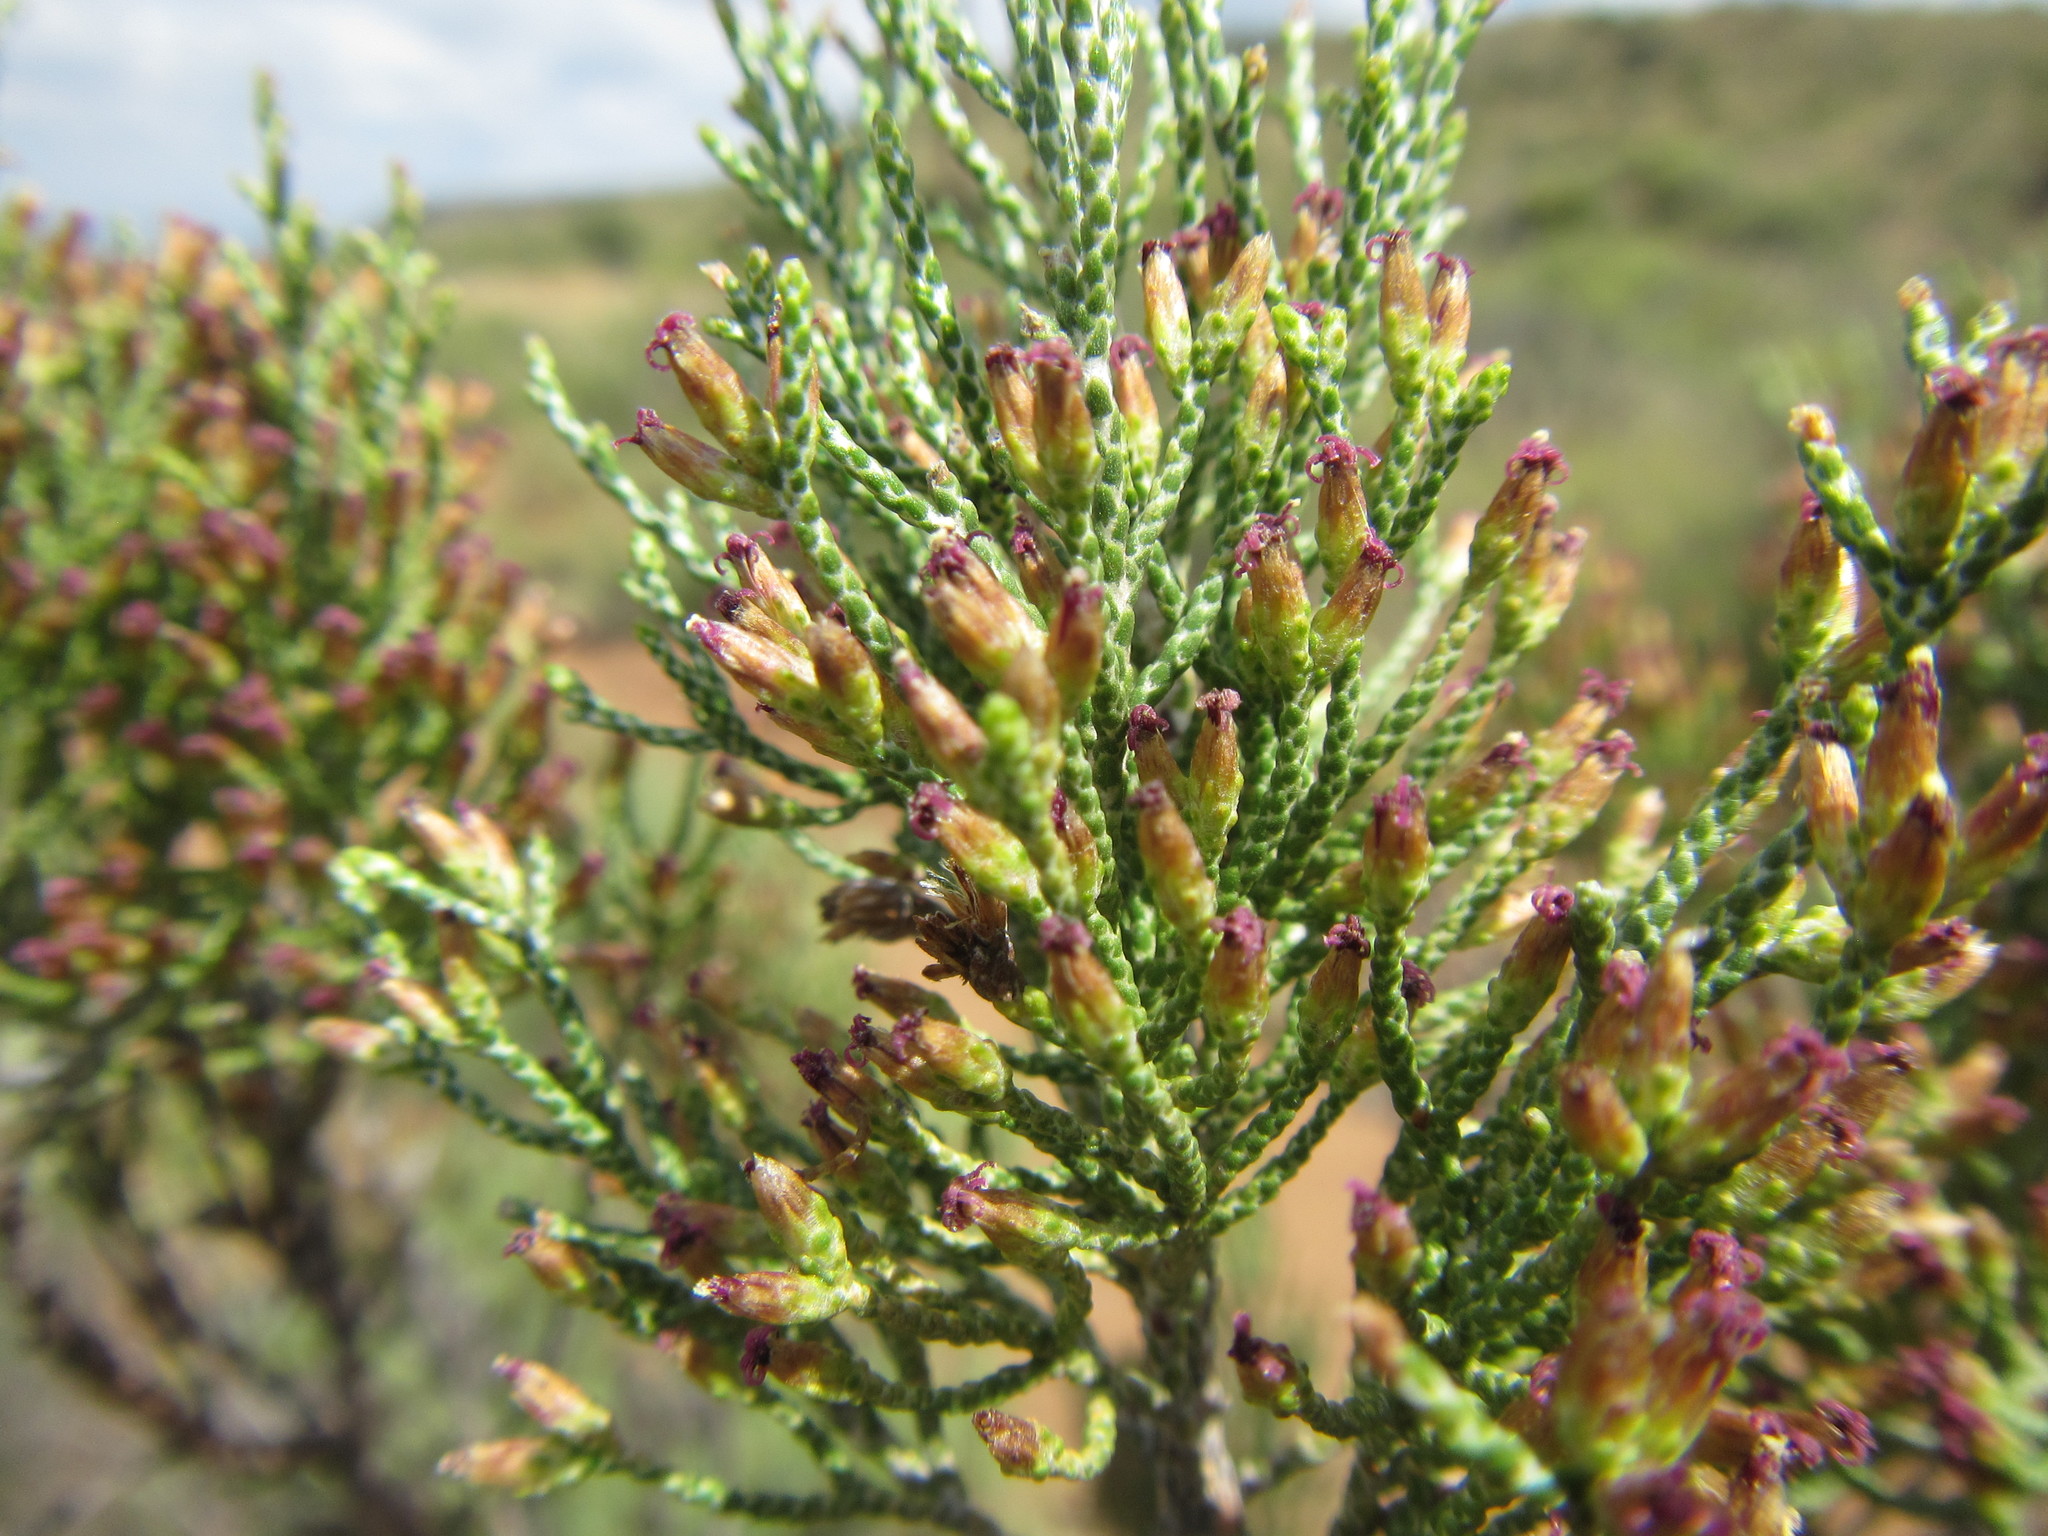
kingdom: Plantae
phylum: Tracheophyta
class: Magnoliopsida
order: Asterales
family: Asteraceae
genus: Dicerothamnus
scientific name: Dicerothamnus rhinocerotis
